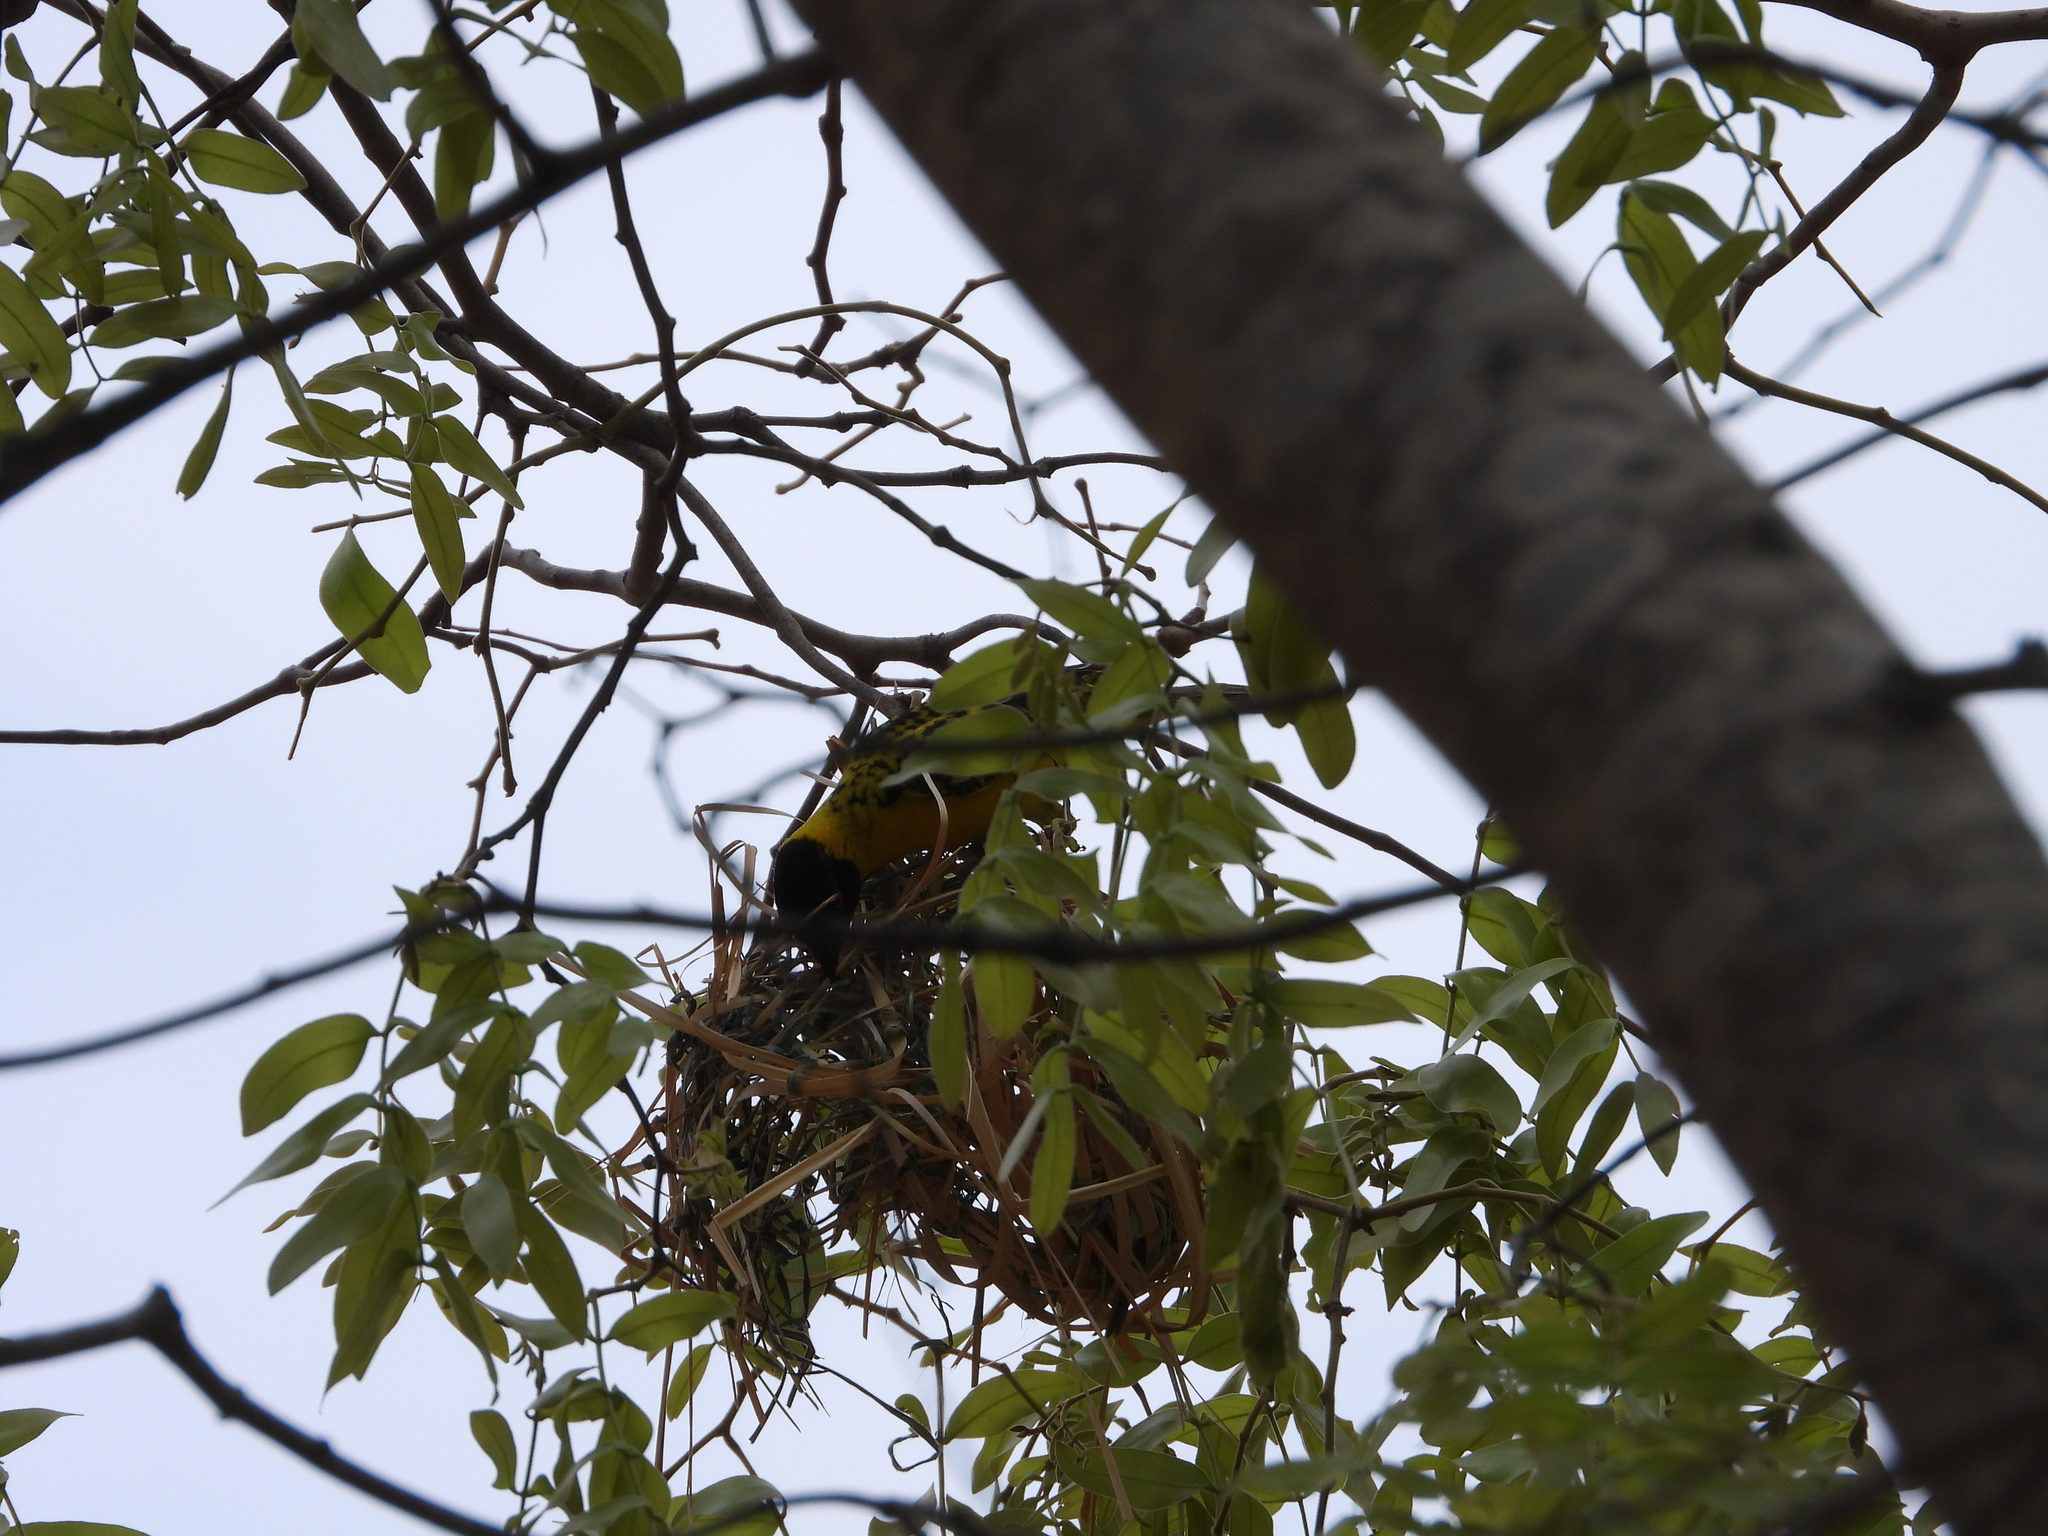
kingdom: Animalia
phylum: Chordata
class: Aves
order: Passeriformes
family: Ploceidae
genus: Ploceus
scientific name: Ploceus cucullatus
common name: Village weaver
